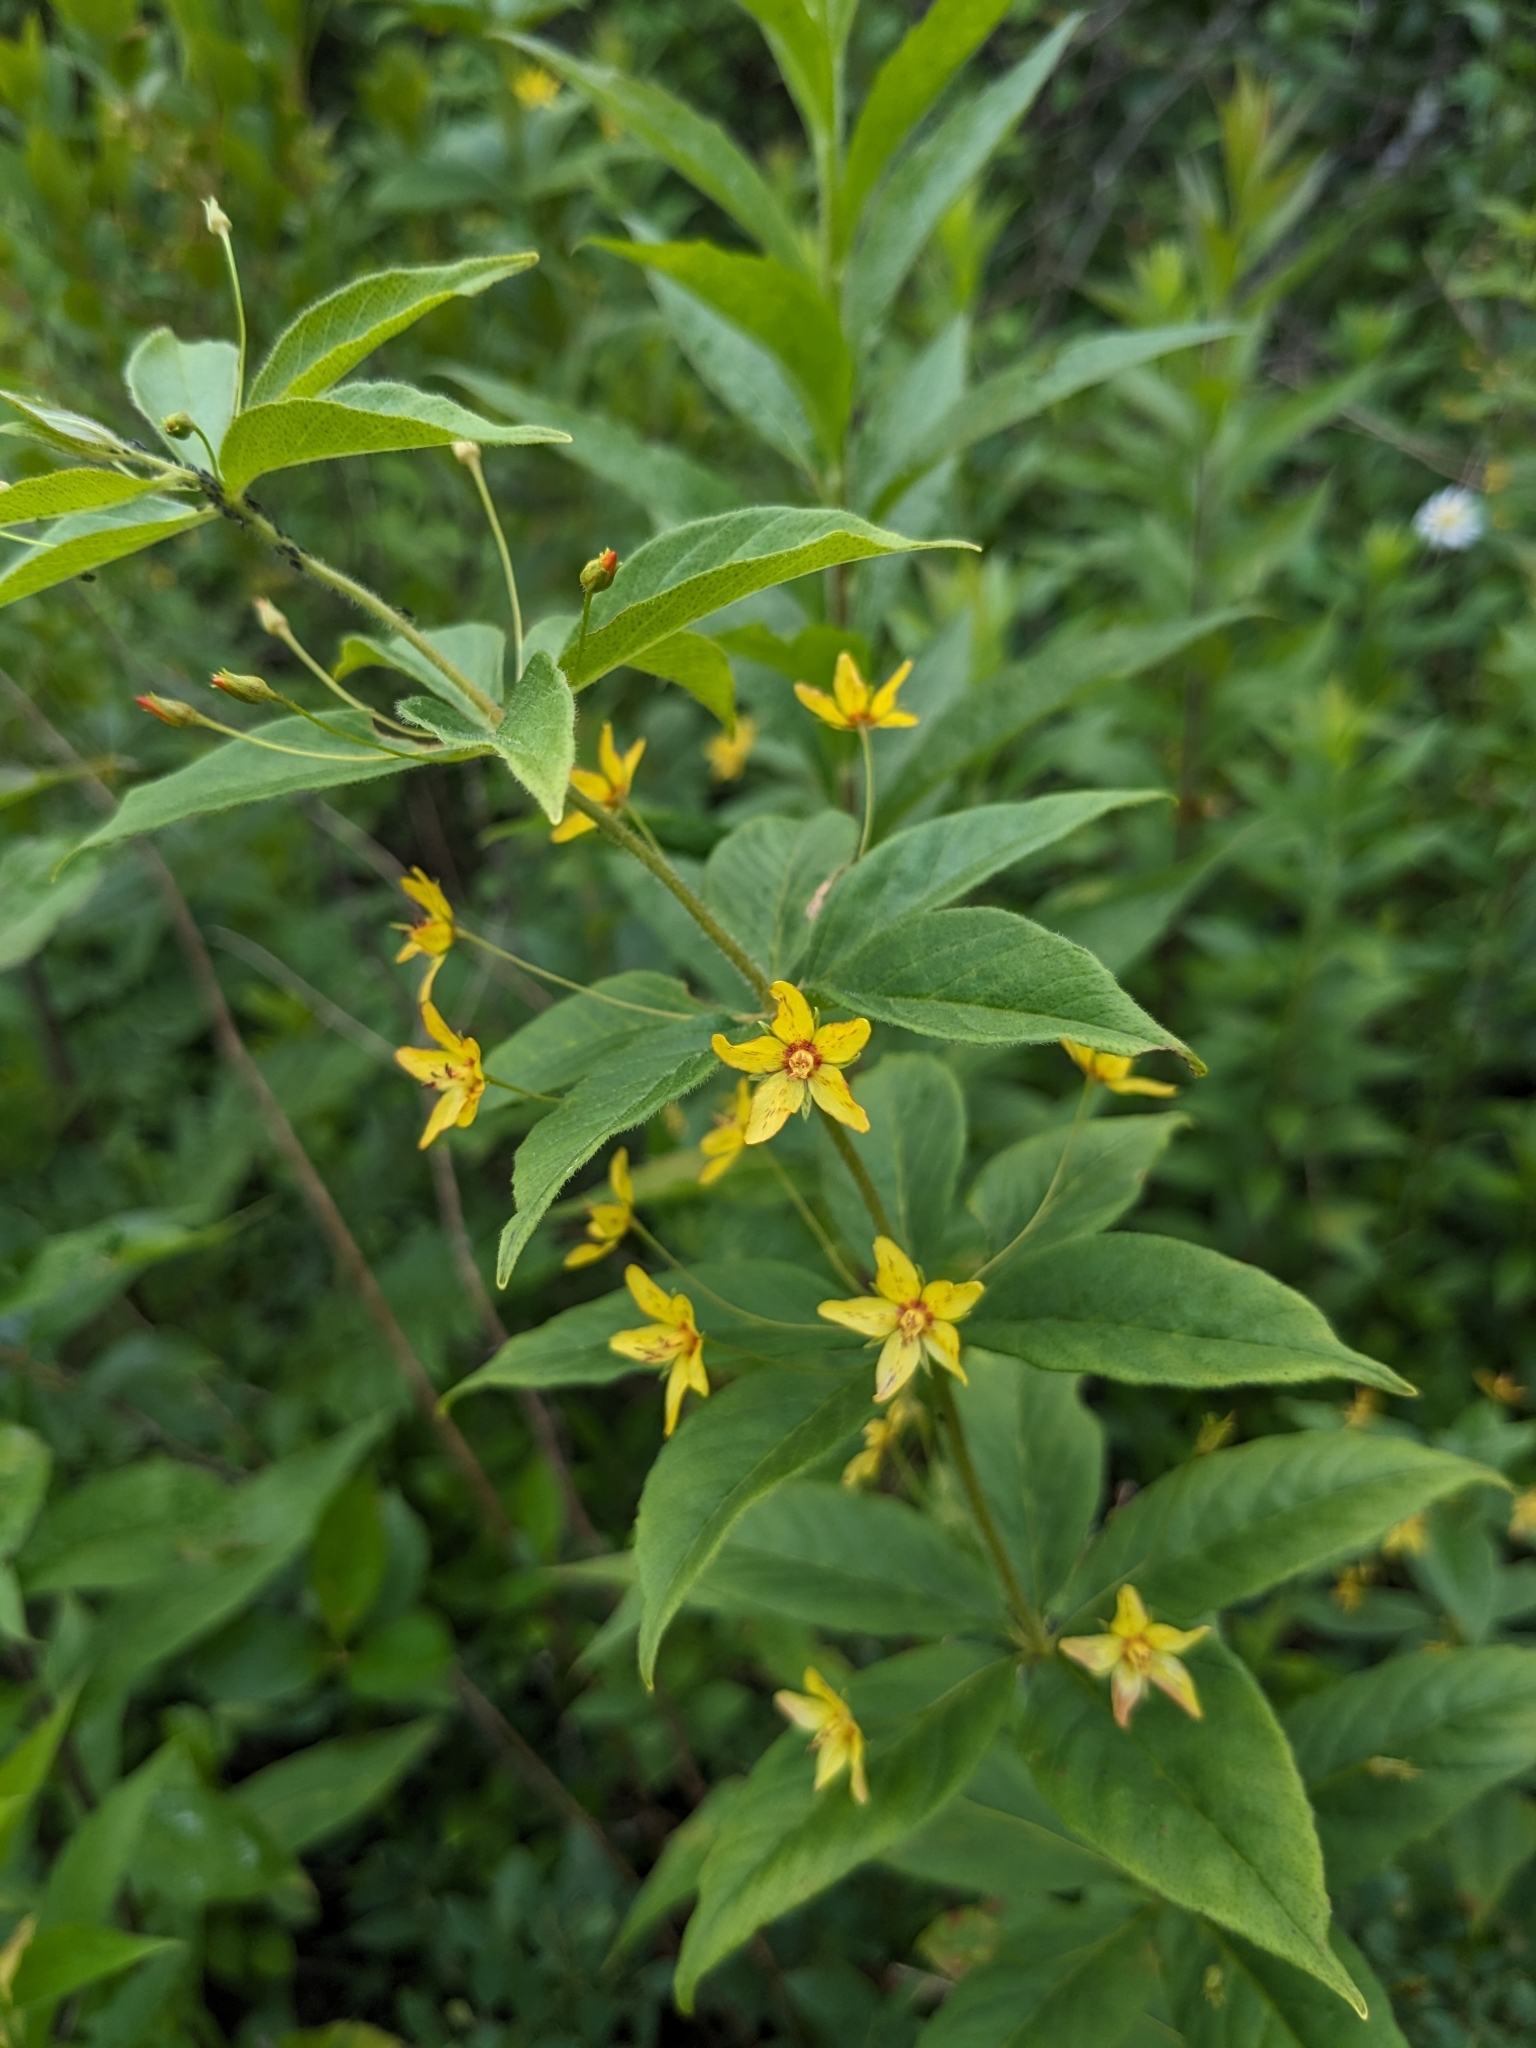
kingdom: Plantae
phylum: Tracheophyta
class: Magnoliopsida
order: Ericales
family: Primulaceae
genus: Lysimachia
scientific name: Lysimachia quadrifolia
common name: Whorled loosestrife
